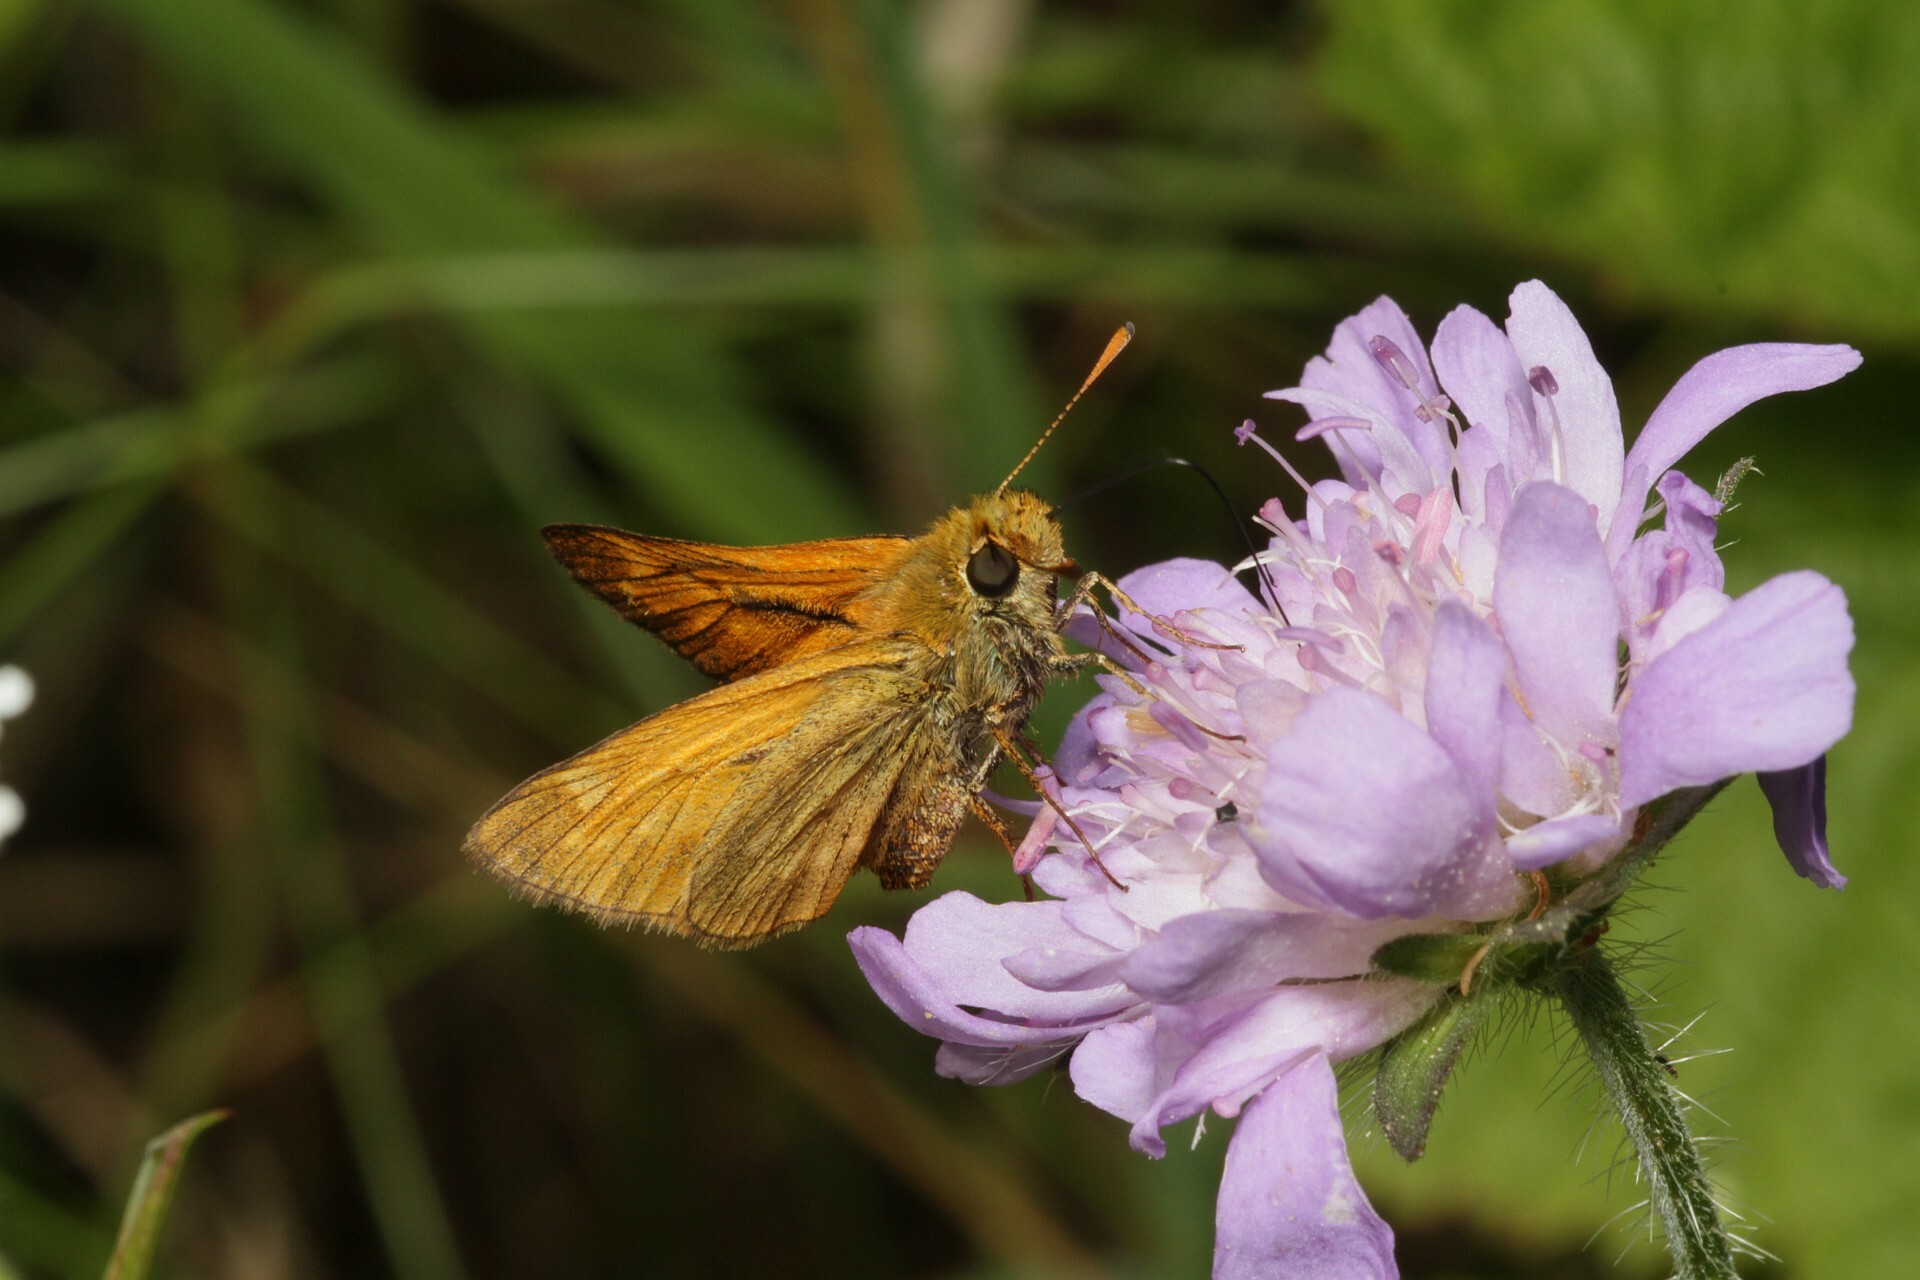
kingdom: Animalia
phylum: Arthropoda
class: Insecta
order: Lepidoptera
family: Hesperiidae
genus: Ochlodes
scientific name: Ochlodes venata
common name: Large skipper
